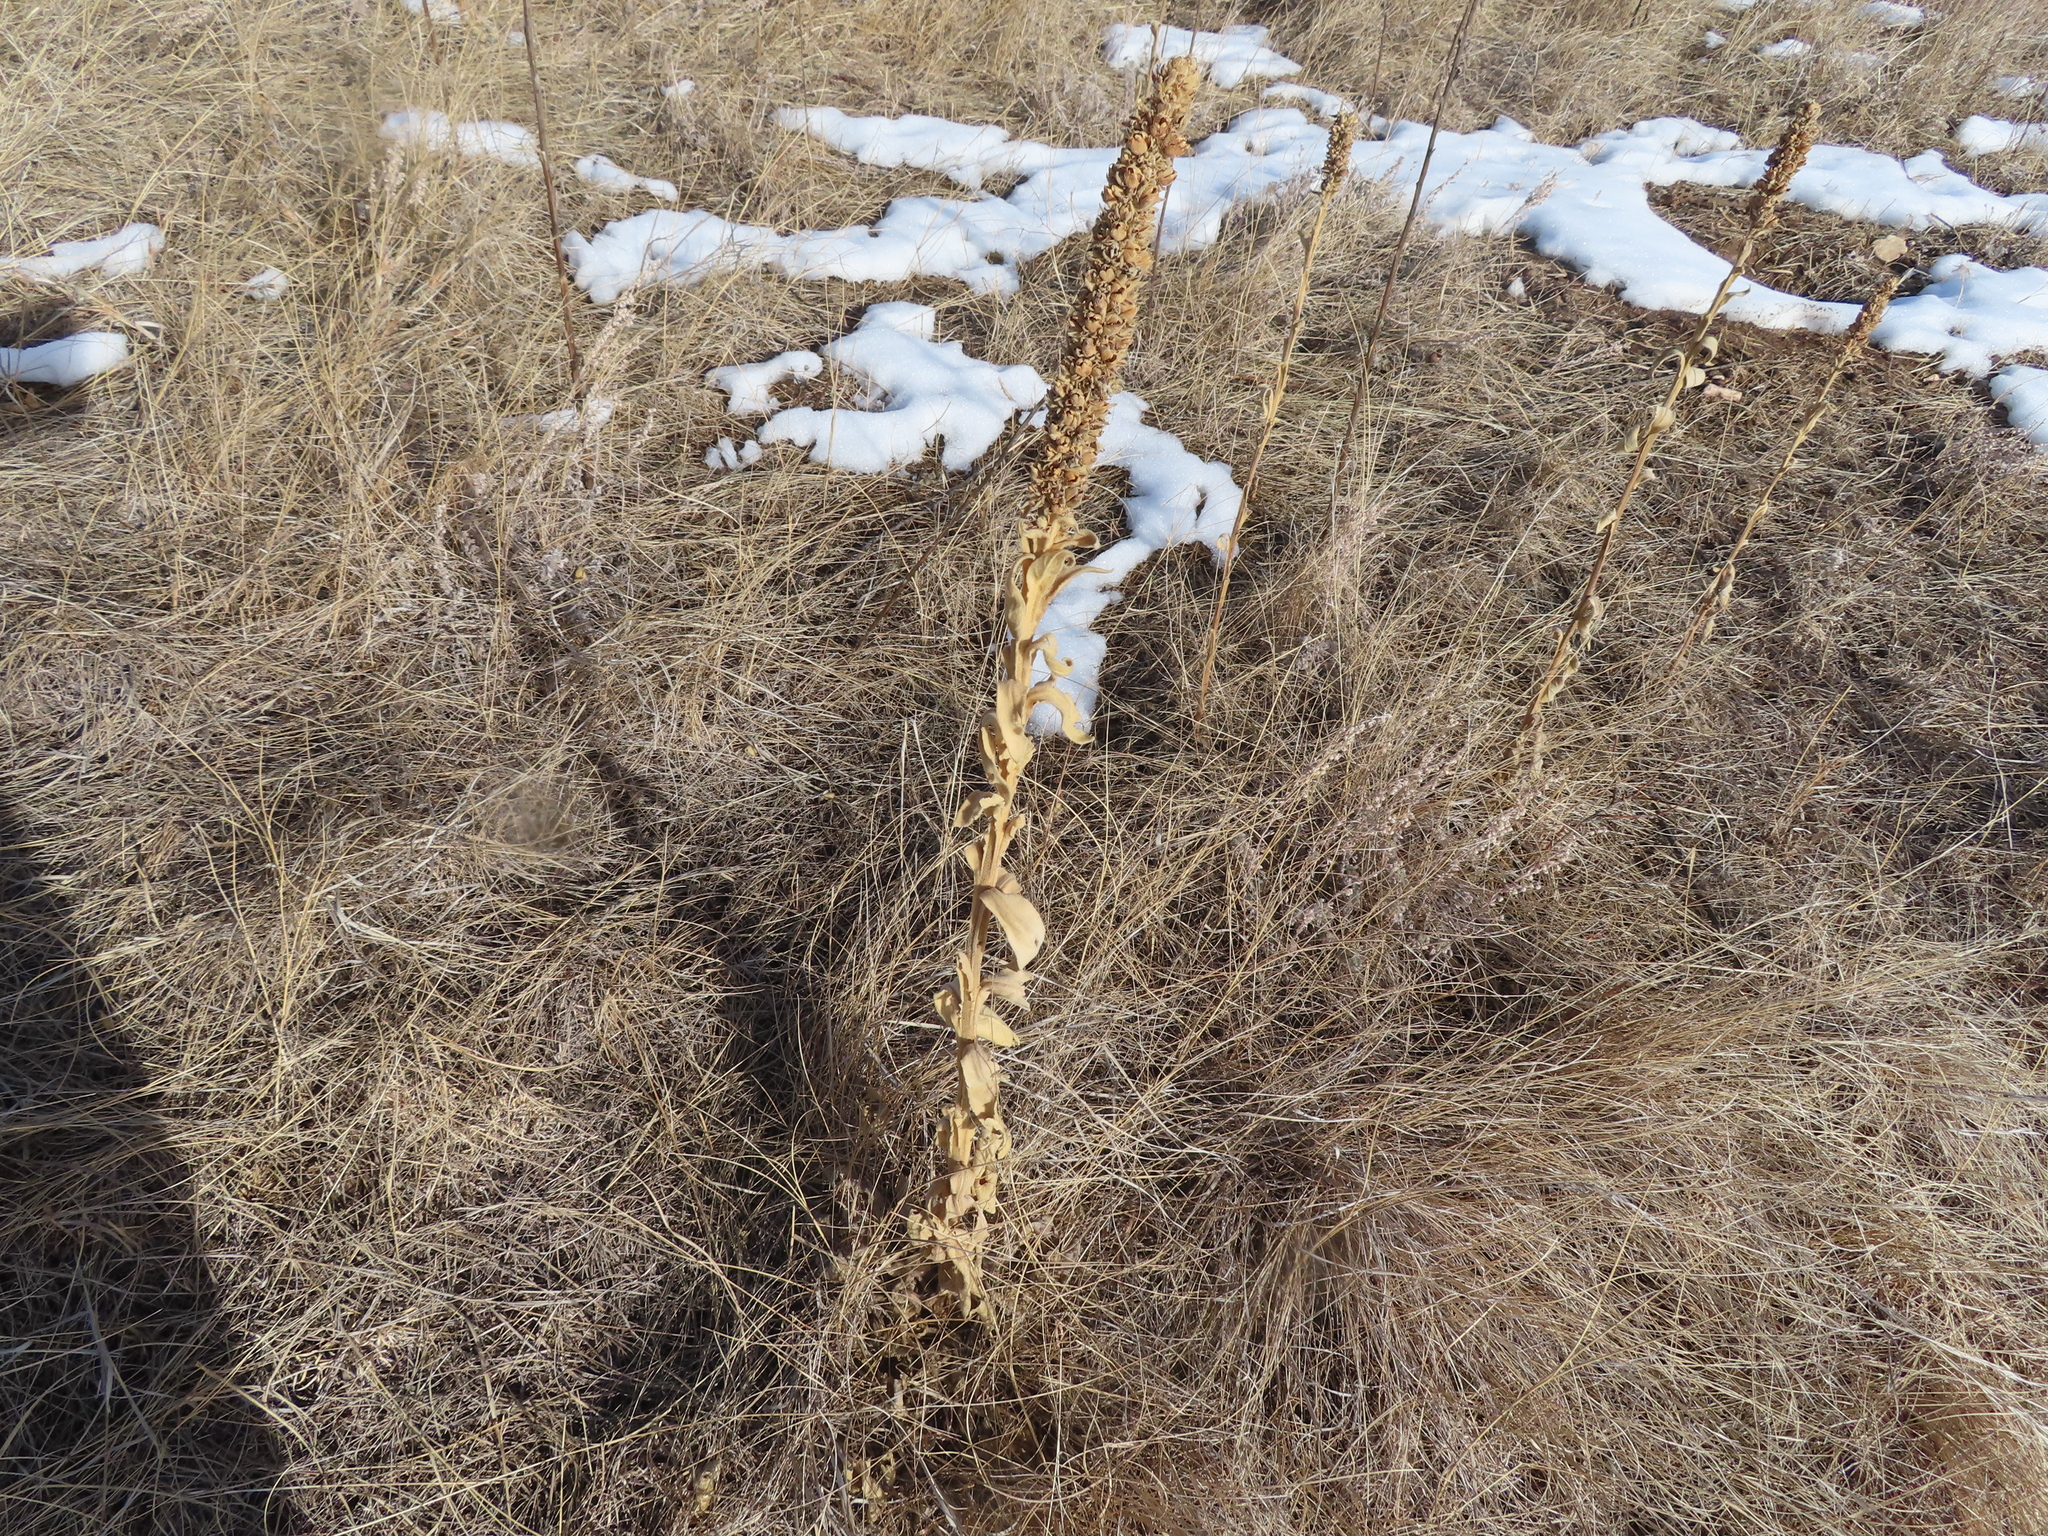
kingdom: Plantae
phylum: Tracheophyta
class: Magnoliopsida
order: Lamiales
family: Scrophulariaceae
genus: Verbascum
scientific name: Verbascum thapsus
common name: Common mullein
